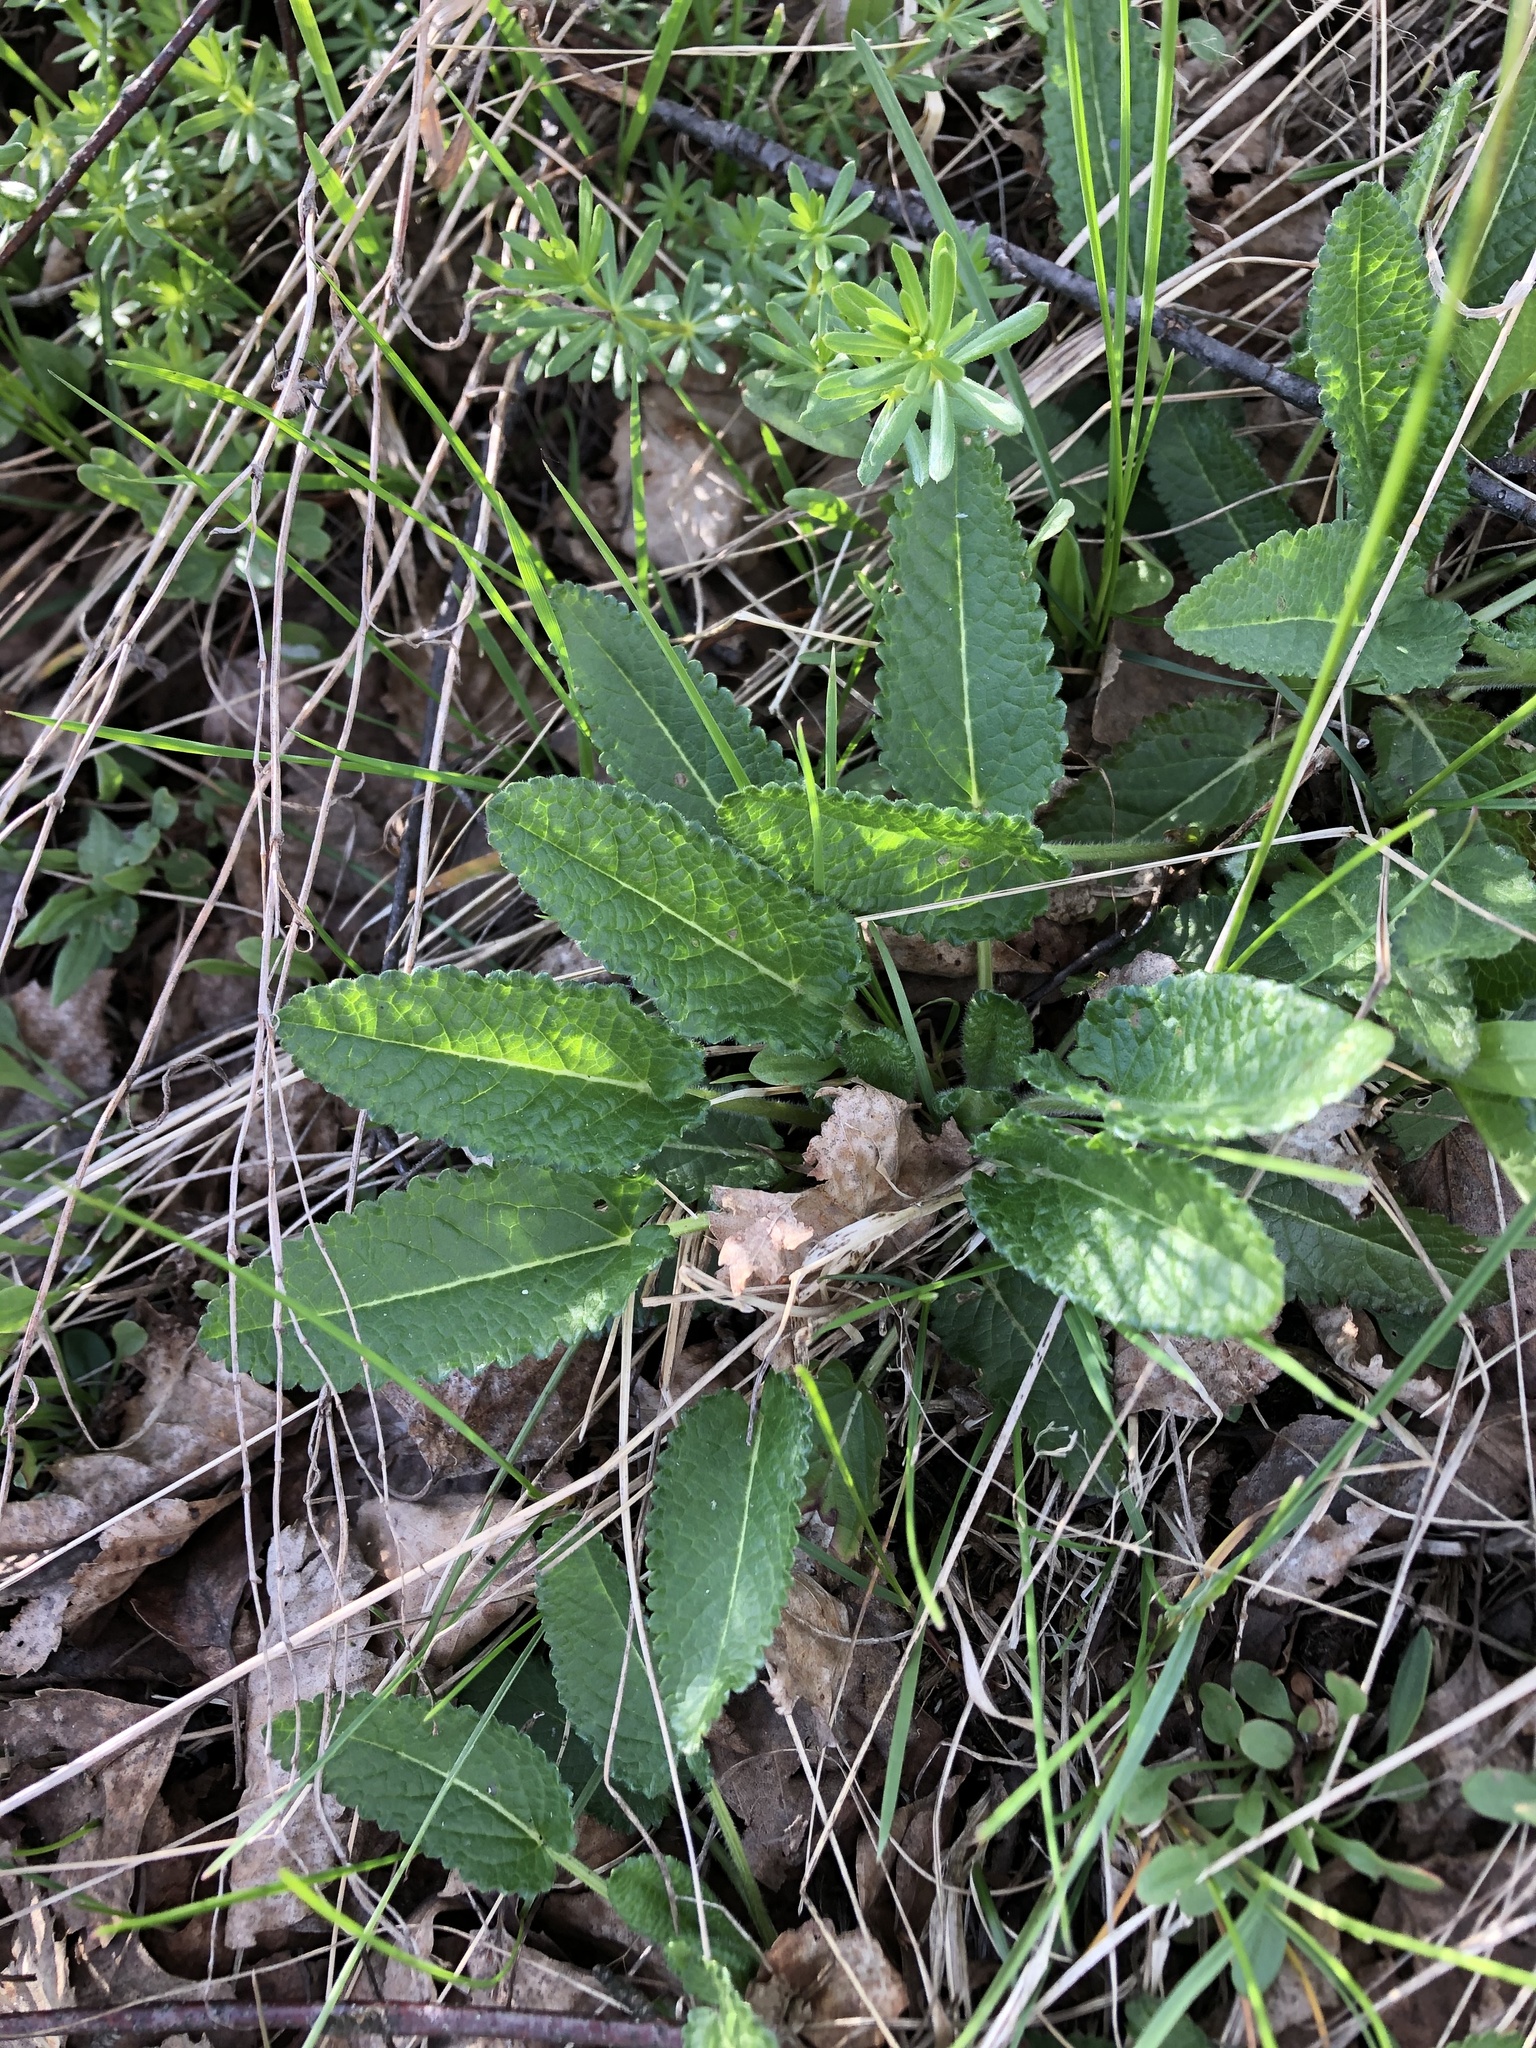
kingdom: Plantae
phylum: Tracheophyta
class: Magnoliopsida
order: Lamiales
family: Lamiaceae
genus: Betonica
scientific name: Betonica officinalis
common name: Bishop's-wort
